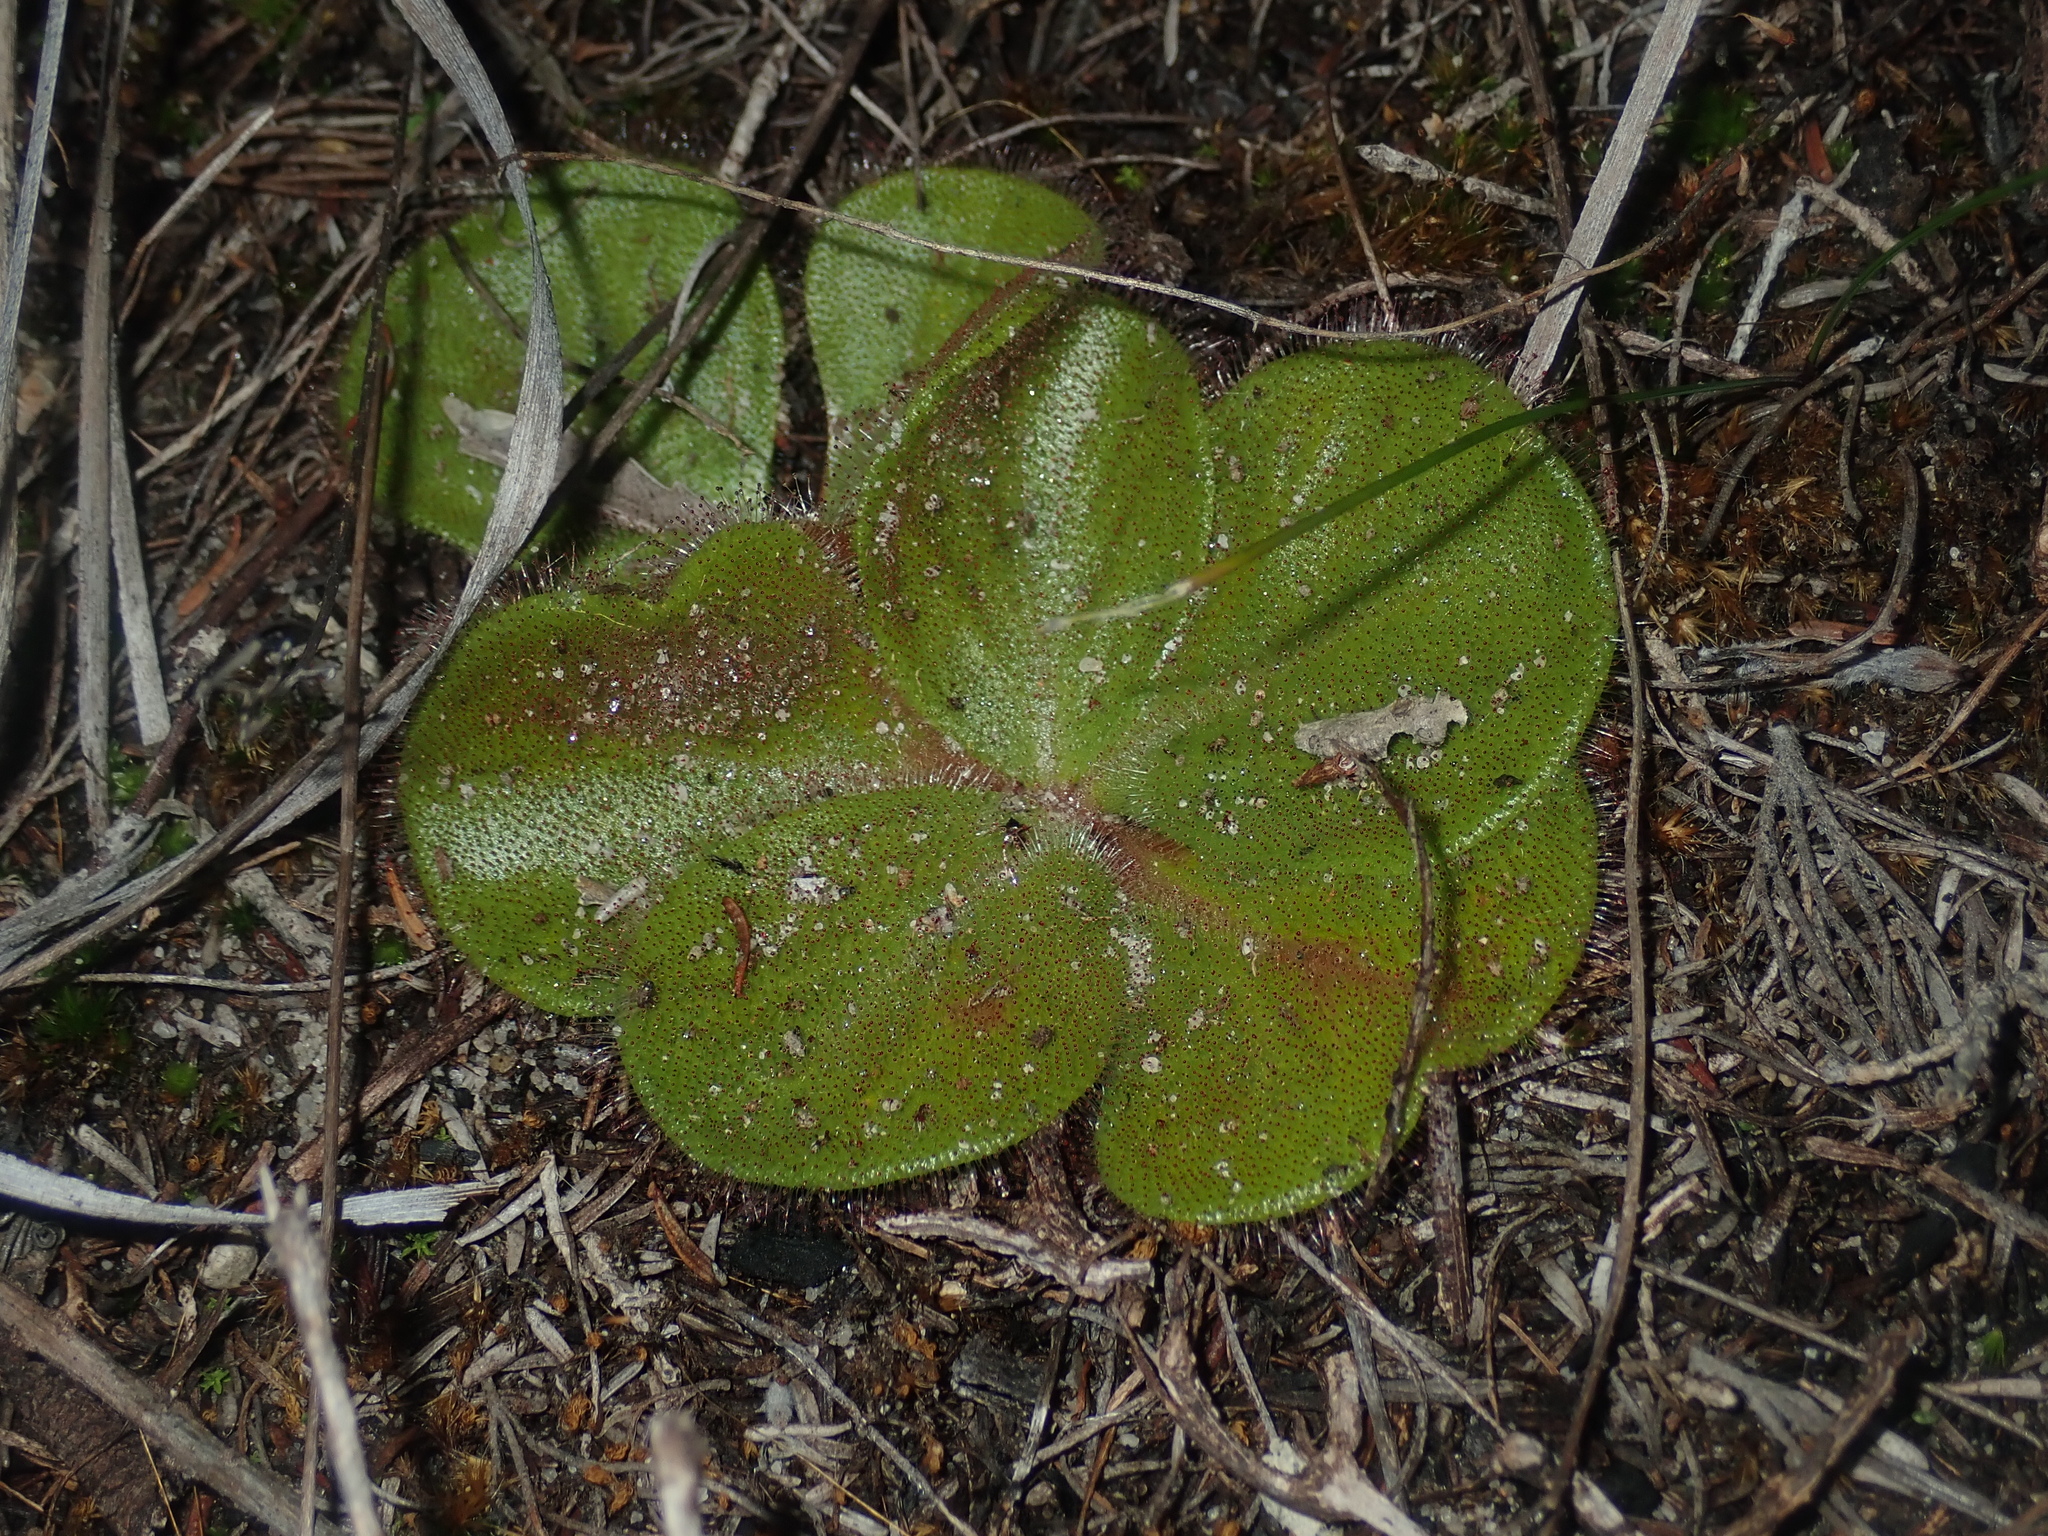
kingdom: Plantae
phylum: Tracheophyta
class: Magnoliopsida
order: Caryophyllales
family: Droseraceae
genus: Drosera
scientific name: Drosera erythrorhiza
